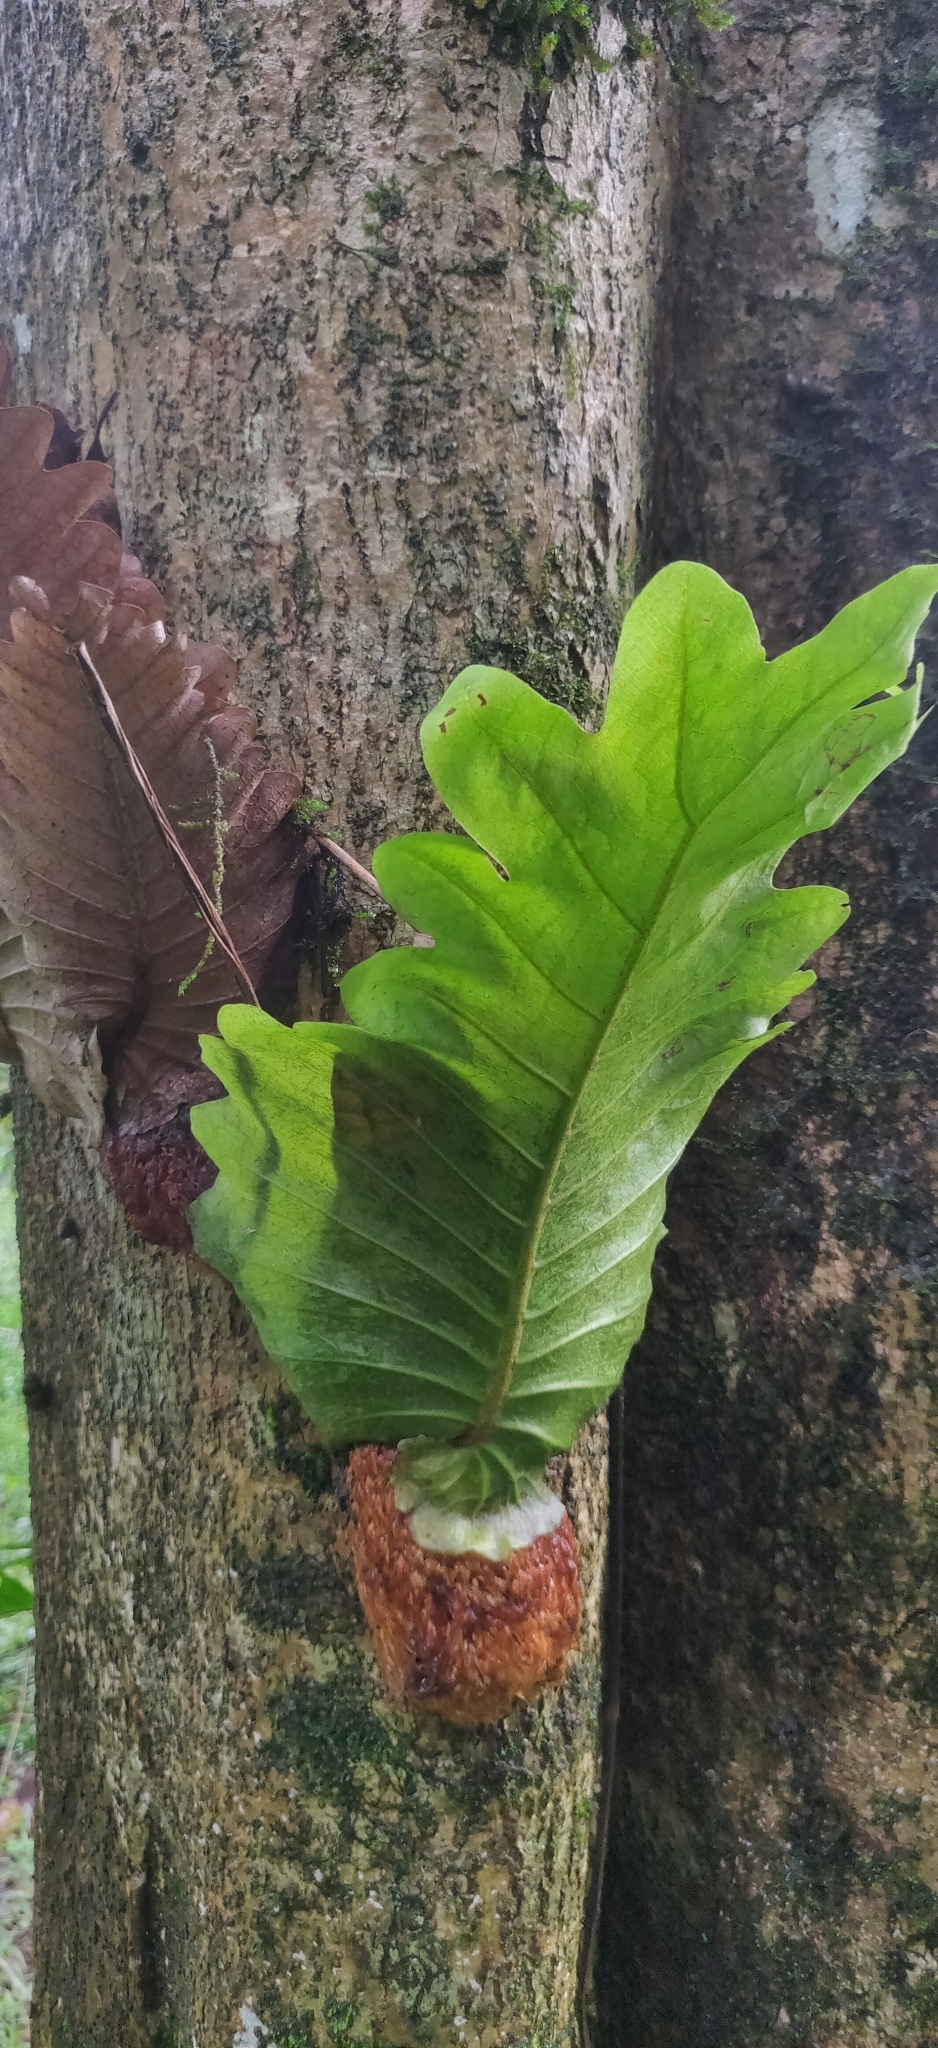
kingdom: Plantae
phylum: Tracheophyta
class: Polypodiopsida
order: Polypodiales
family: Polypodiaceae
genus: Drynaria
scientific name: Drynaria quercifolia
